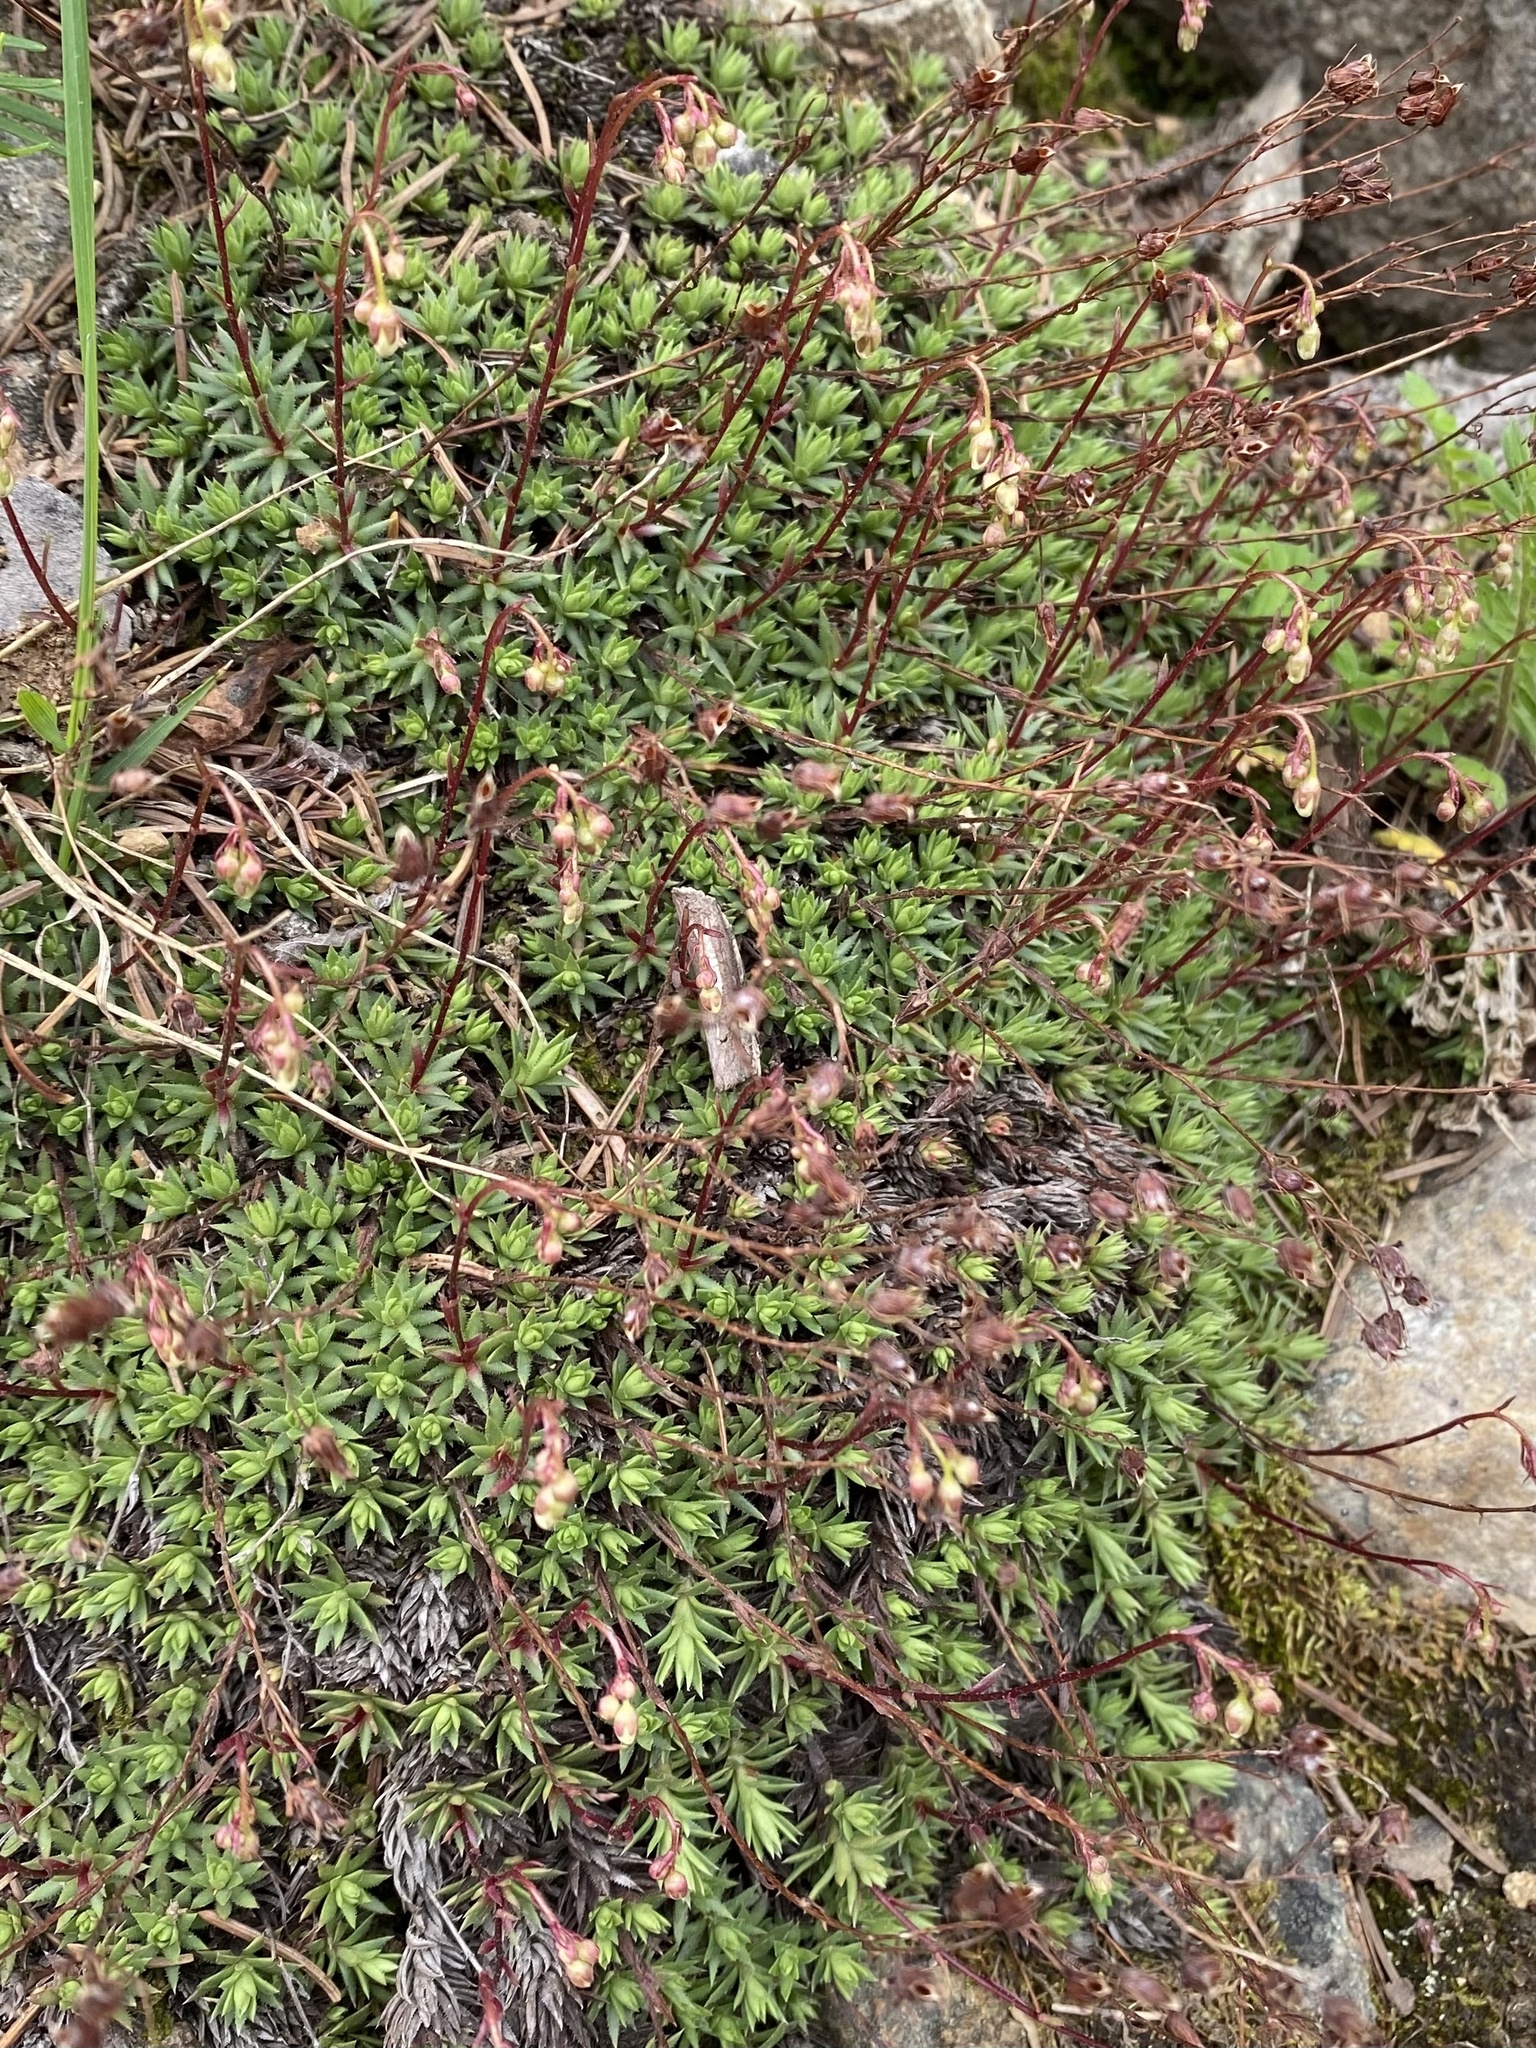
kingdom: Plantae
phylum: Tracheophyta
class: Magnoliopsida
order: Saxifragales
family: Saxifragaceae
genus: Saxifraga
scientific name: Saxifraga bronchialis
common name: Matted saxifrage
